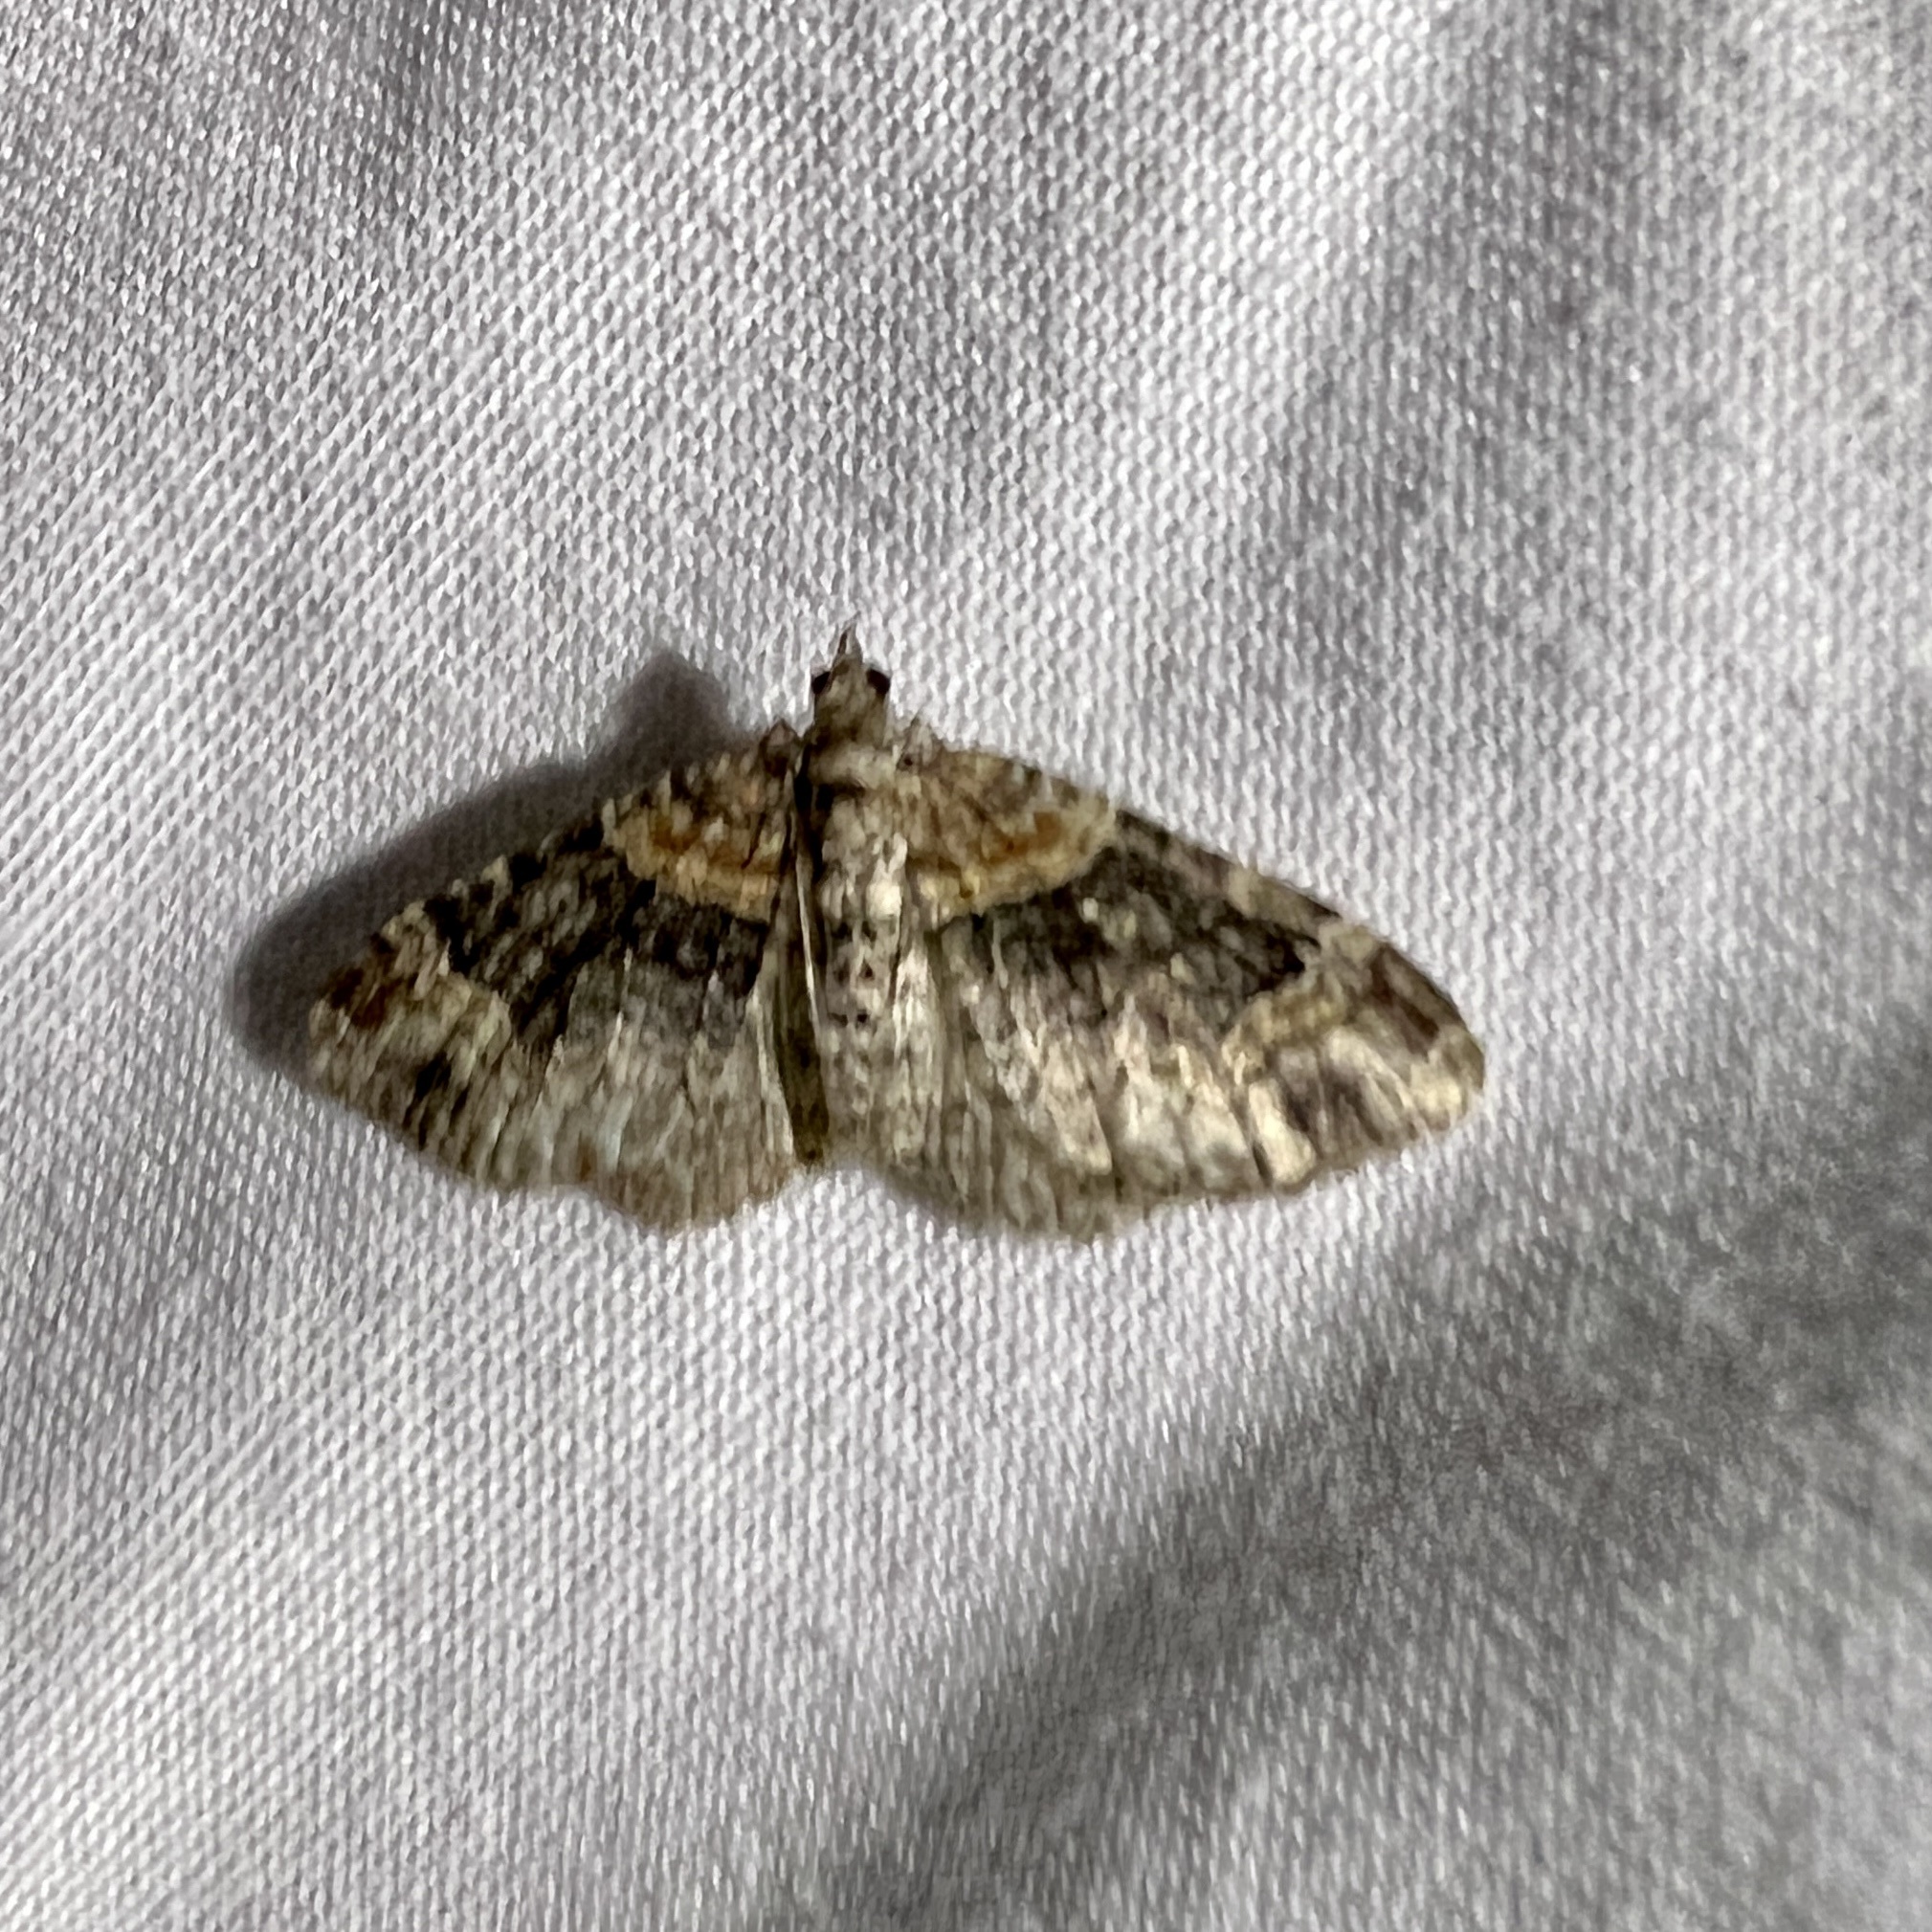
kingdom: Animalia
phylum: Arthropoda
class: Insecta
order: Lepidoptera
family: Geometridae
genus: Xanthorhoe
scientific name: Xanthorhoe ferrugata
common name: Dark-barred twin-spot carpet
